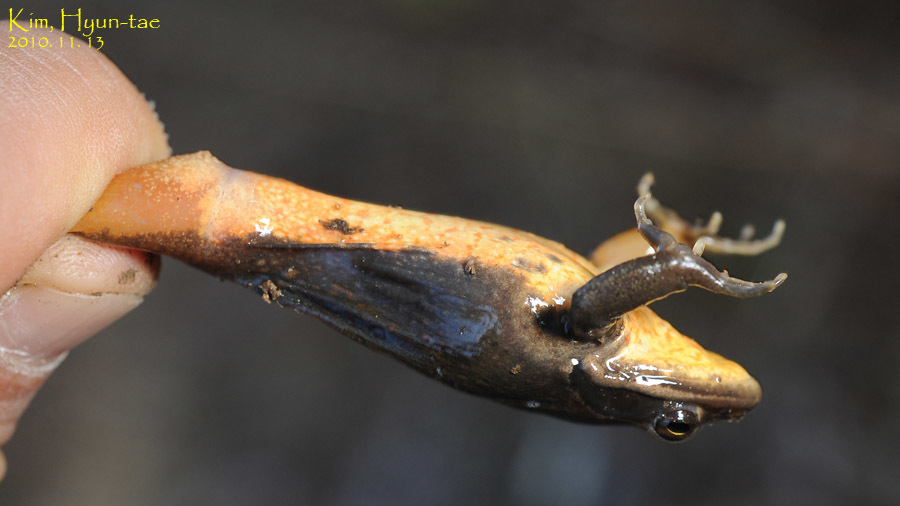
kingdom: Animalia
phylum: Chordata
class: Amphibia
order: Anura
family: Ranidae
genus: Rana
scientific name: Rana coreana
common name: Korean brown frog
